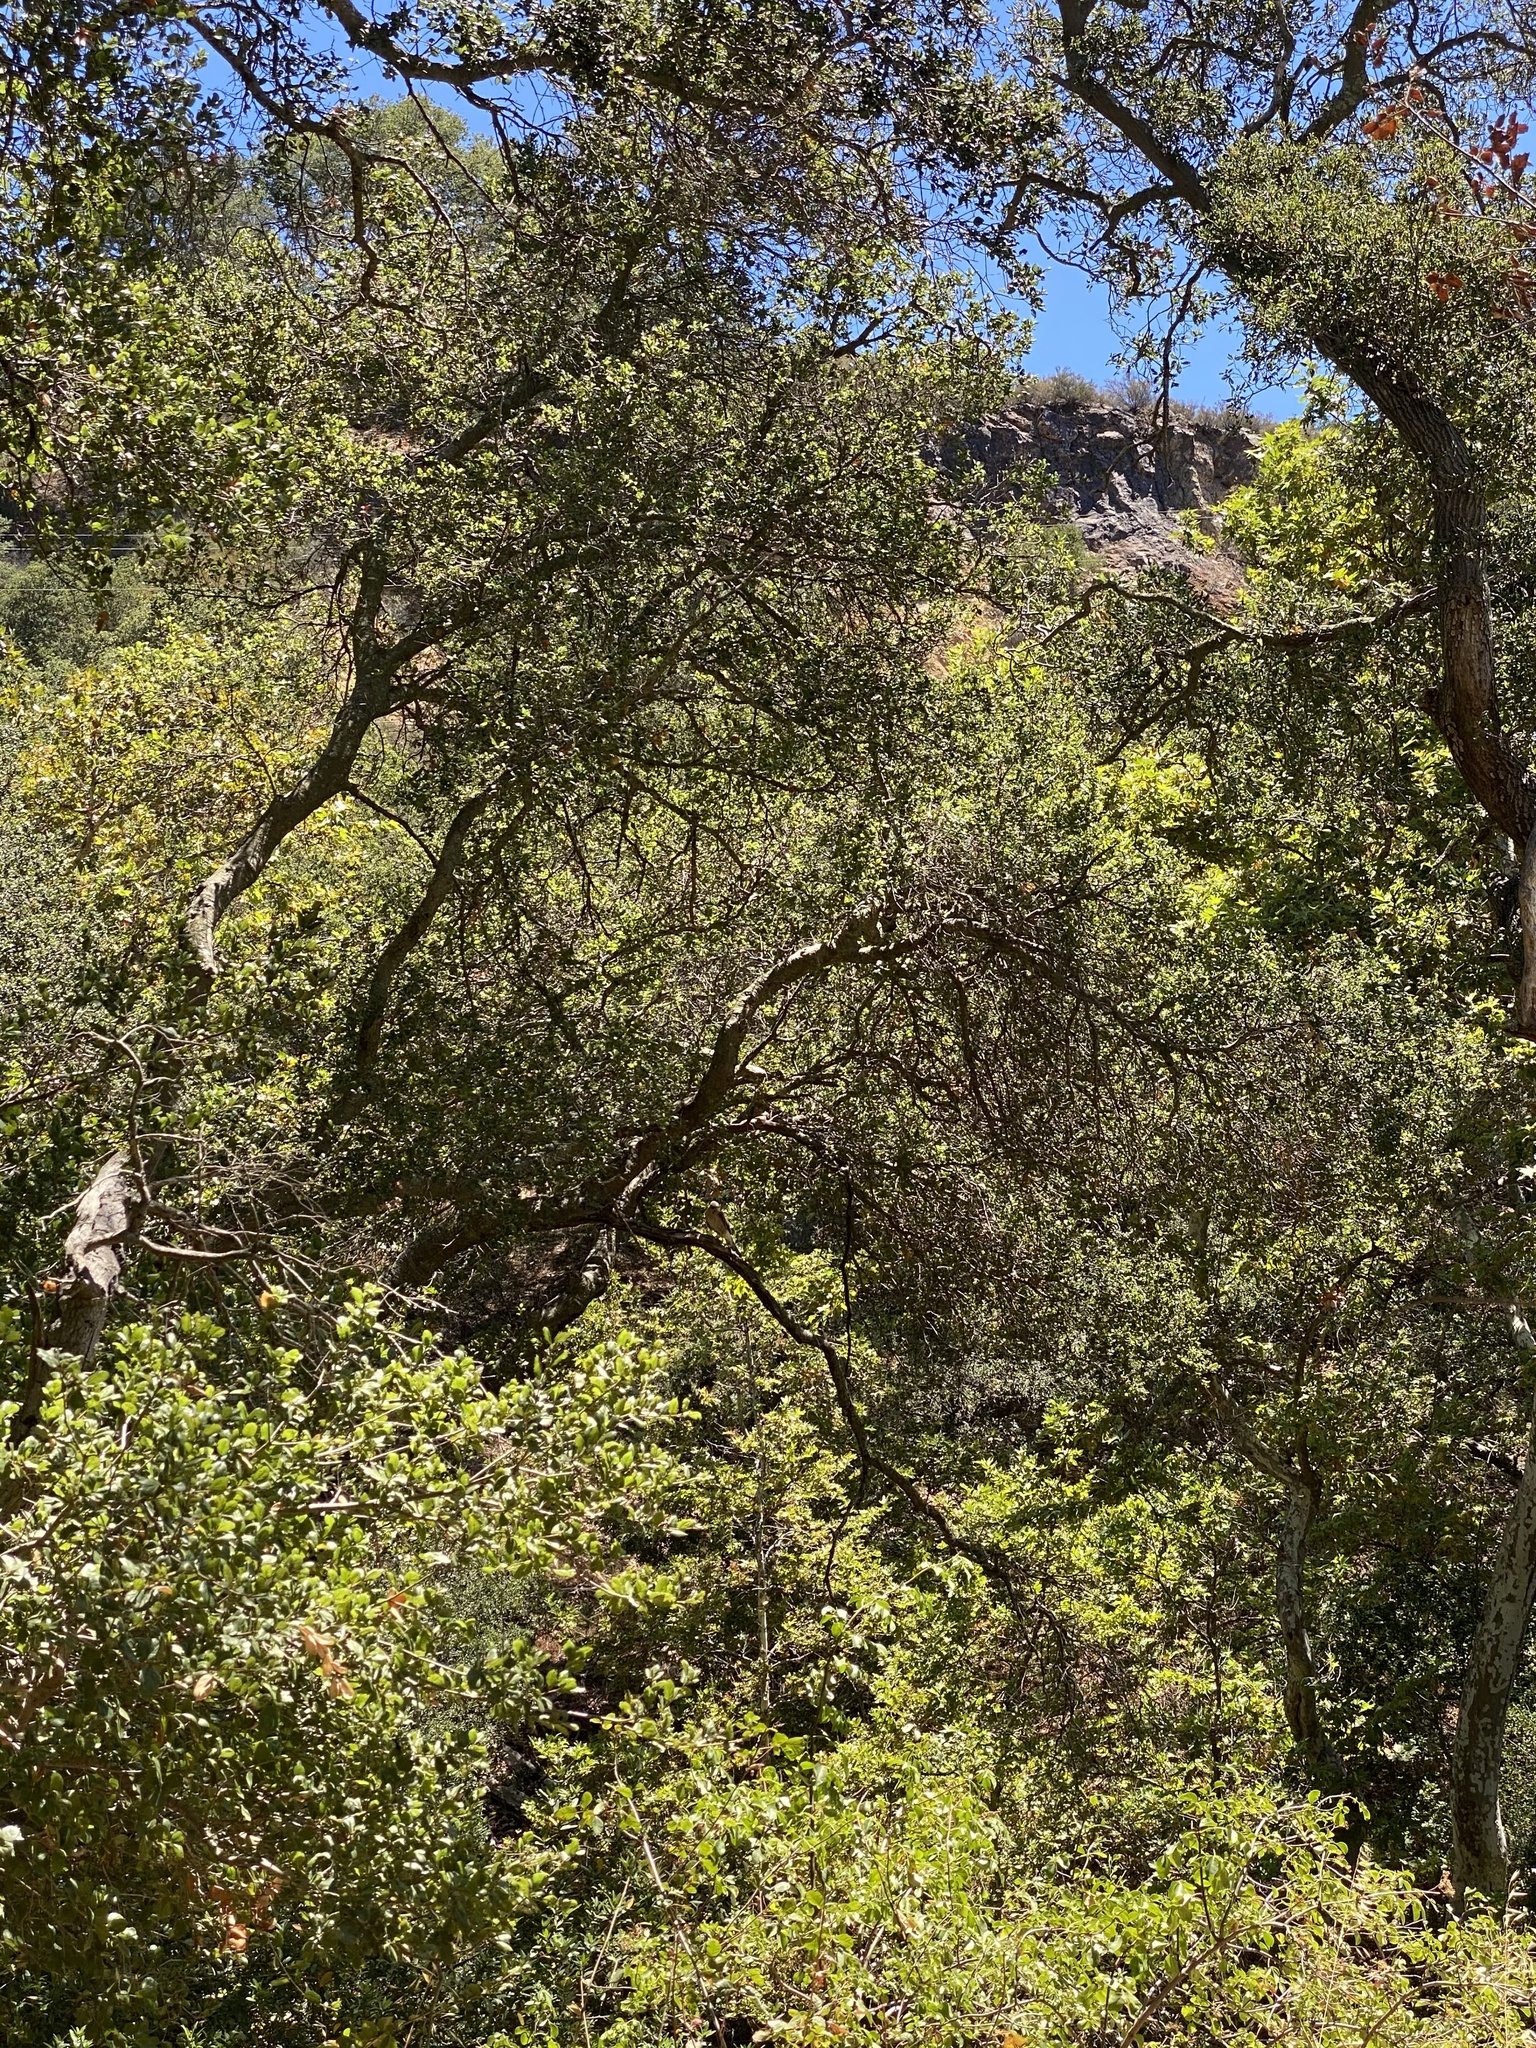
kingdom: Animalia
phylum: Chordata
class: Aves
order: Accipitriformes
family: Accipitridae
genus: Accipiter
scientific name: Accipiter cooperii
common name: Cooper's hawk
